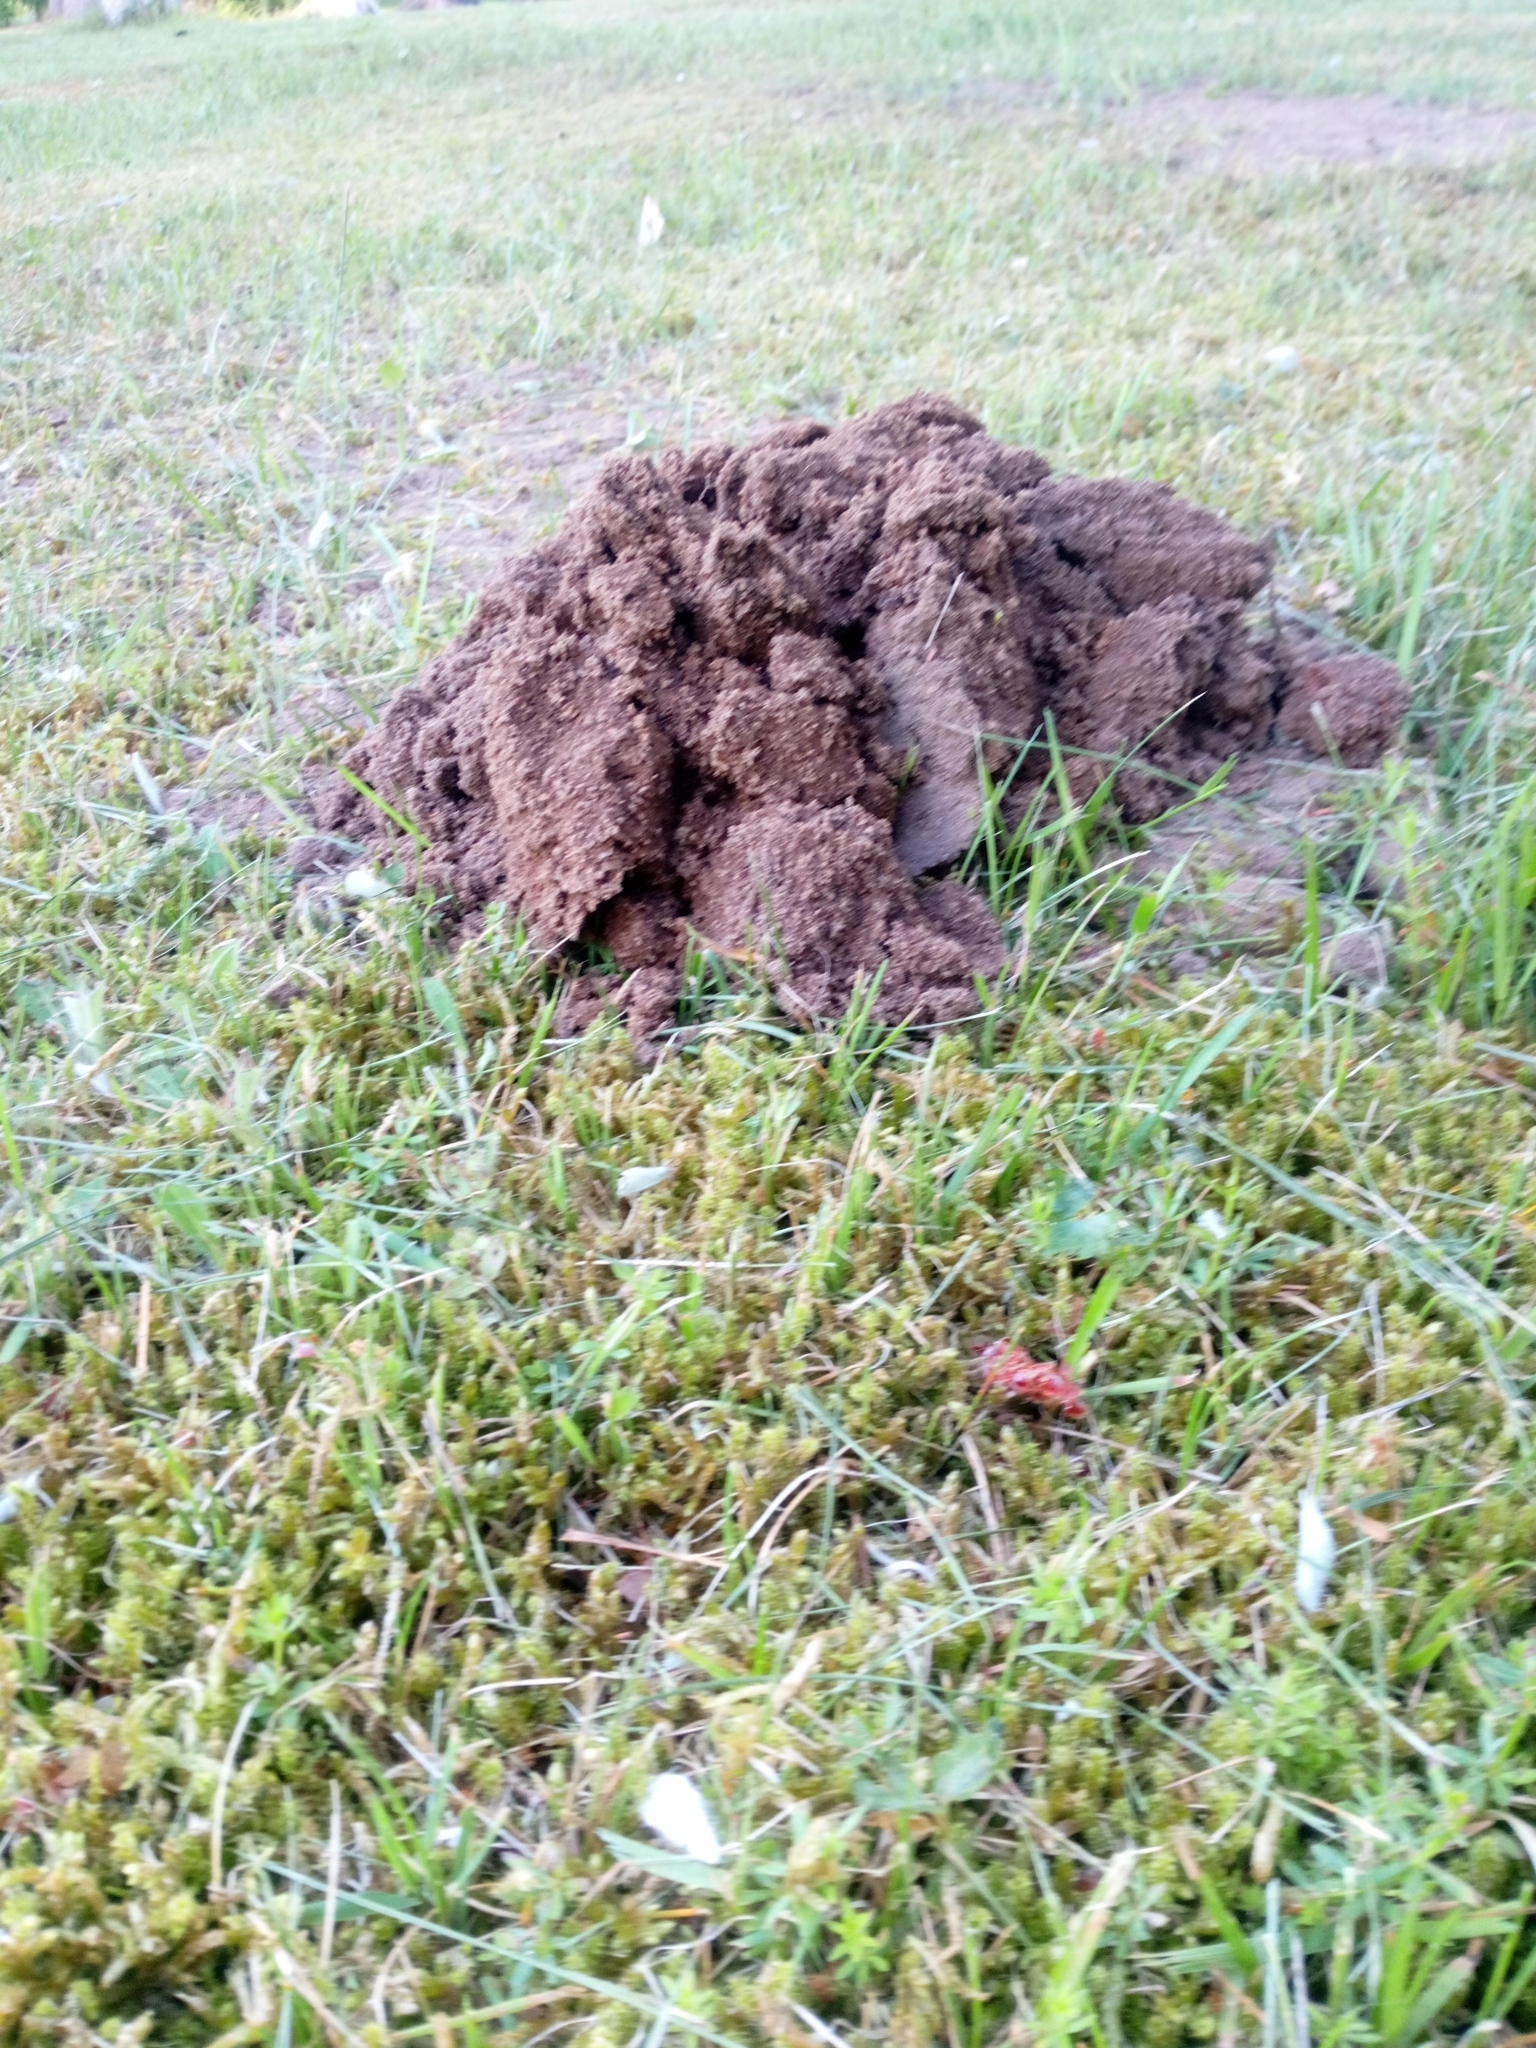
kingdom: Animalia
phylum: Chordata
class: Mammalia
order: Soricomorpha
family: Talpidae
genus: Talpa
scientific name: Talpa europaea
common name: European mole
